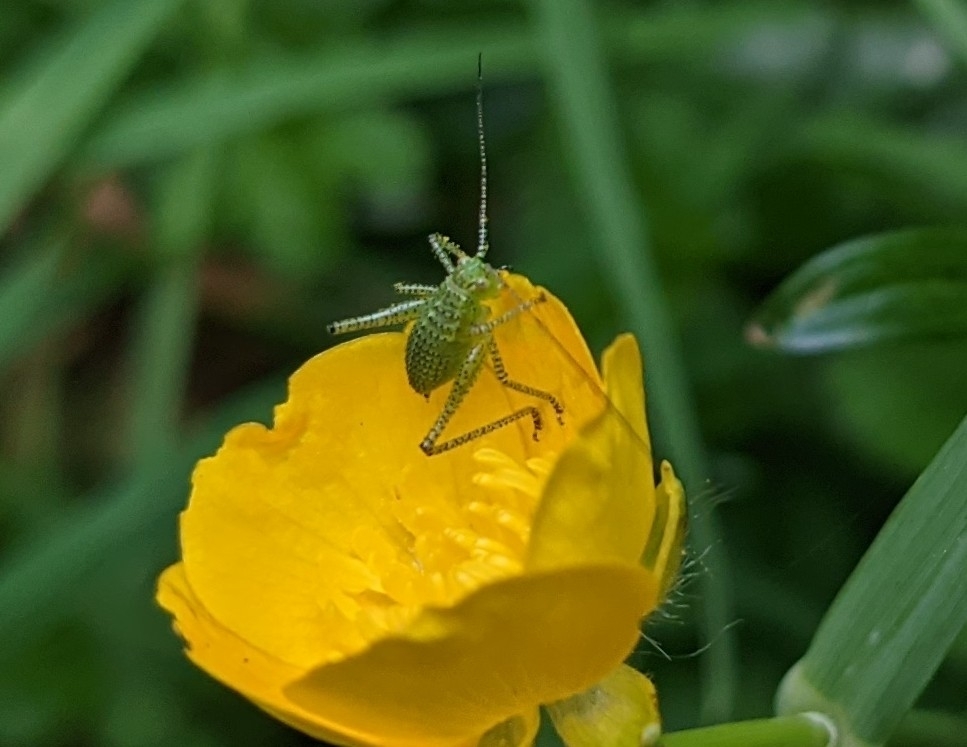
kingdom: Animalia
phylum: Arthropoda
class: Insecta
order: Orthoptera
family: Tettigoniidae
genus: Leptophyes
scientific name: Leptophyes punctatissima
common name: Speckled bush-cricket
